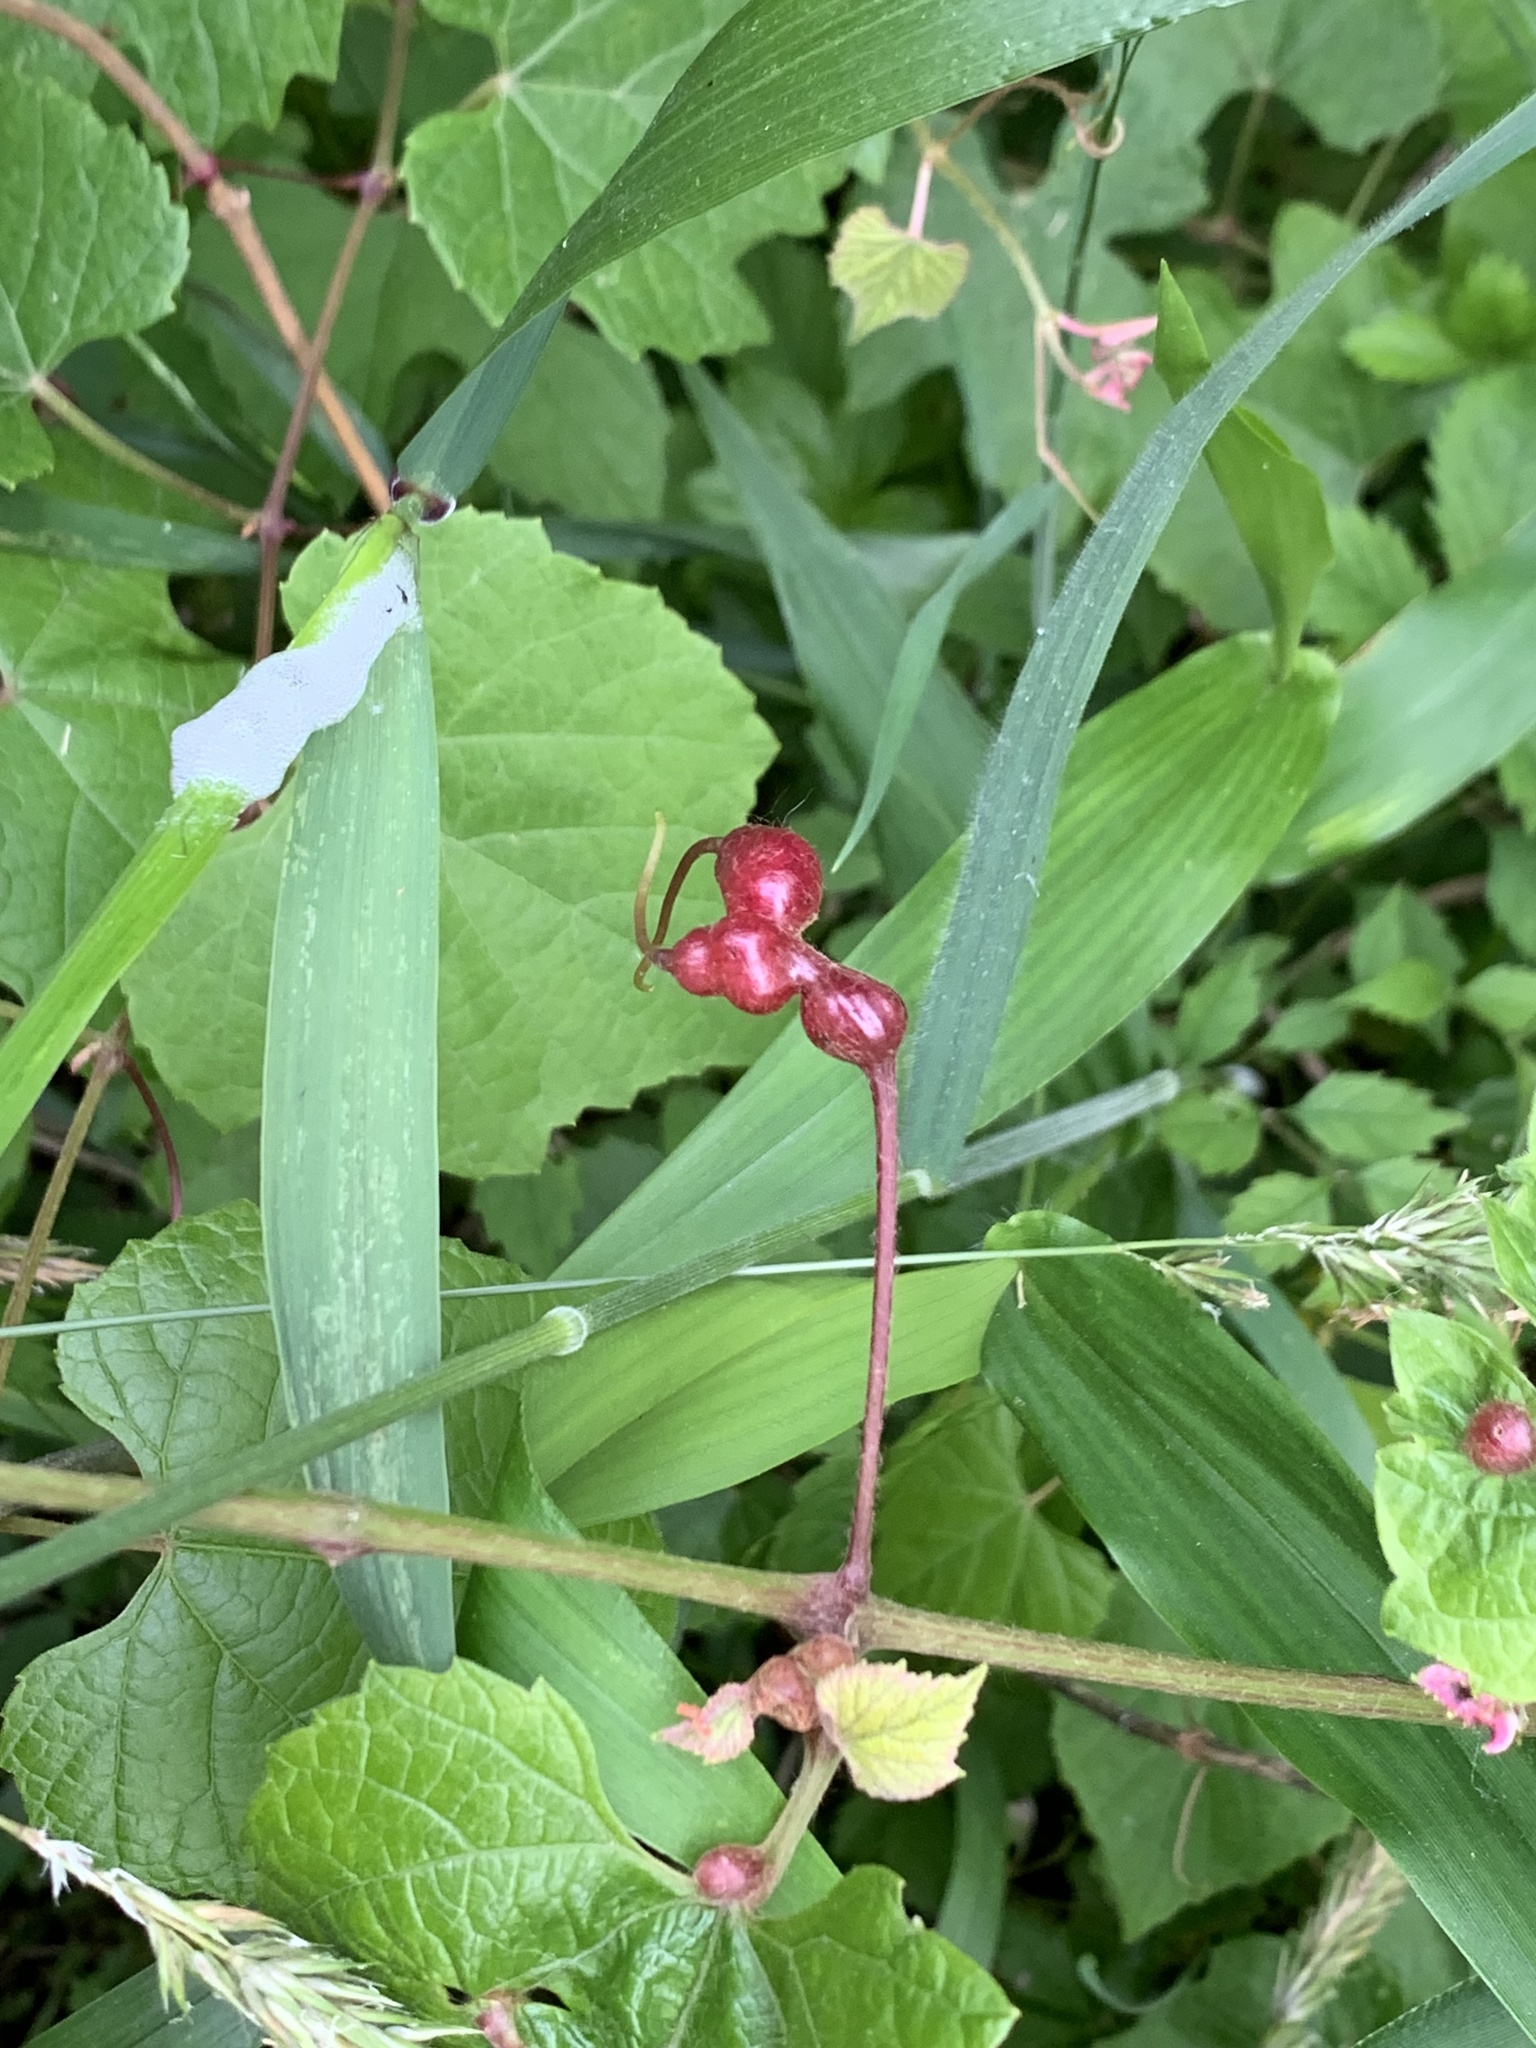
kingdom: Animalia
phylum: Arthropoda
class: Insecta
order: Diptera
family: Cecidomyiidae
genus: Vitisiella
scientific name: Vitisiella brevicauda
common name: Grape tumid gallmaker midge
